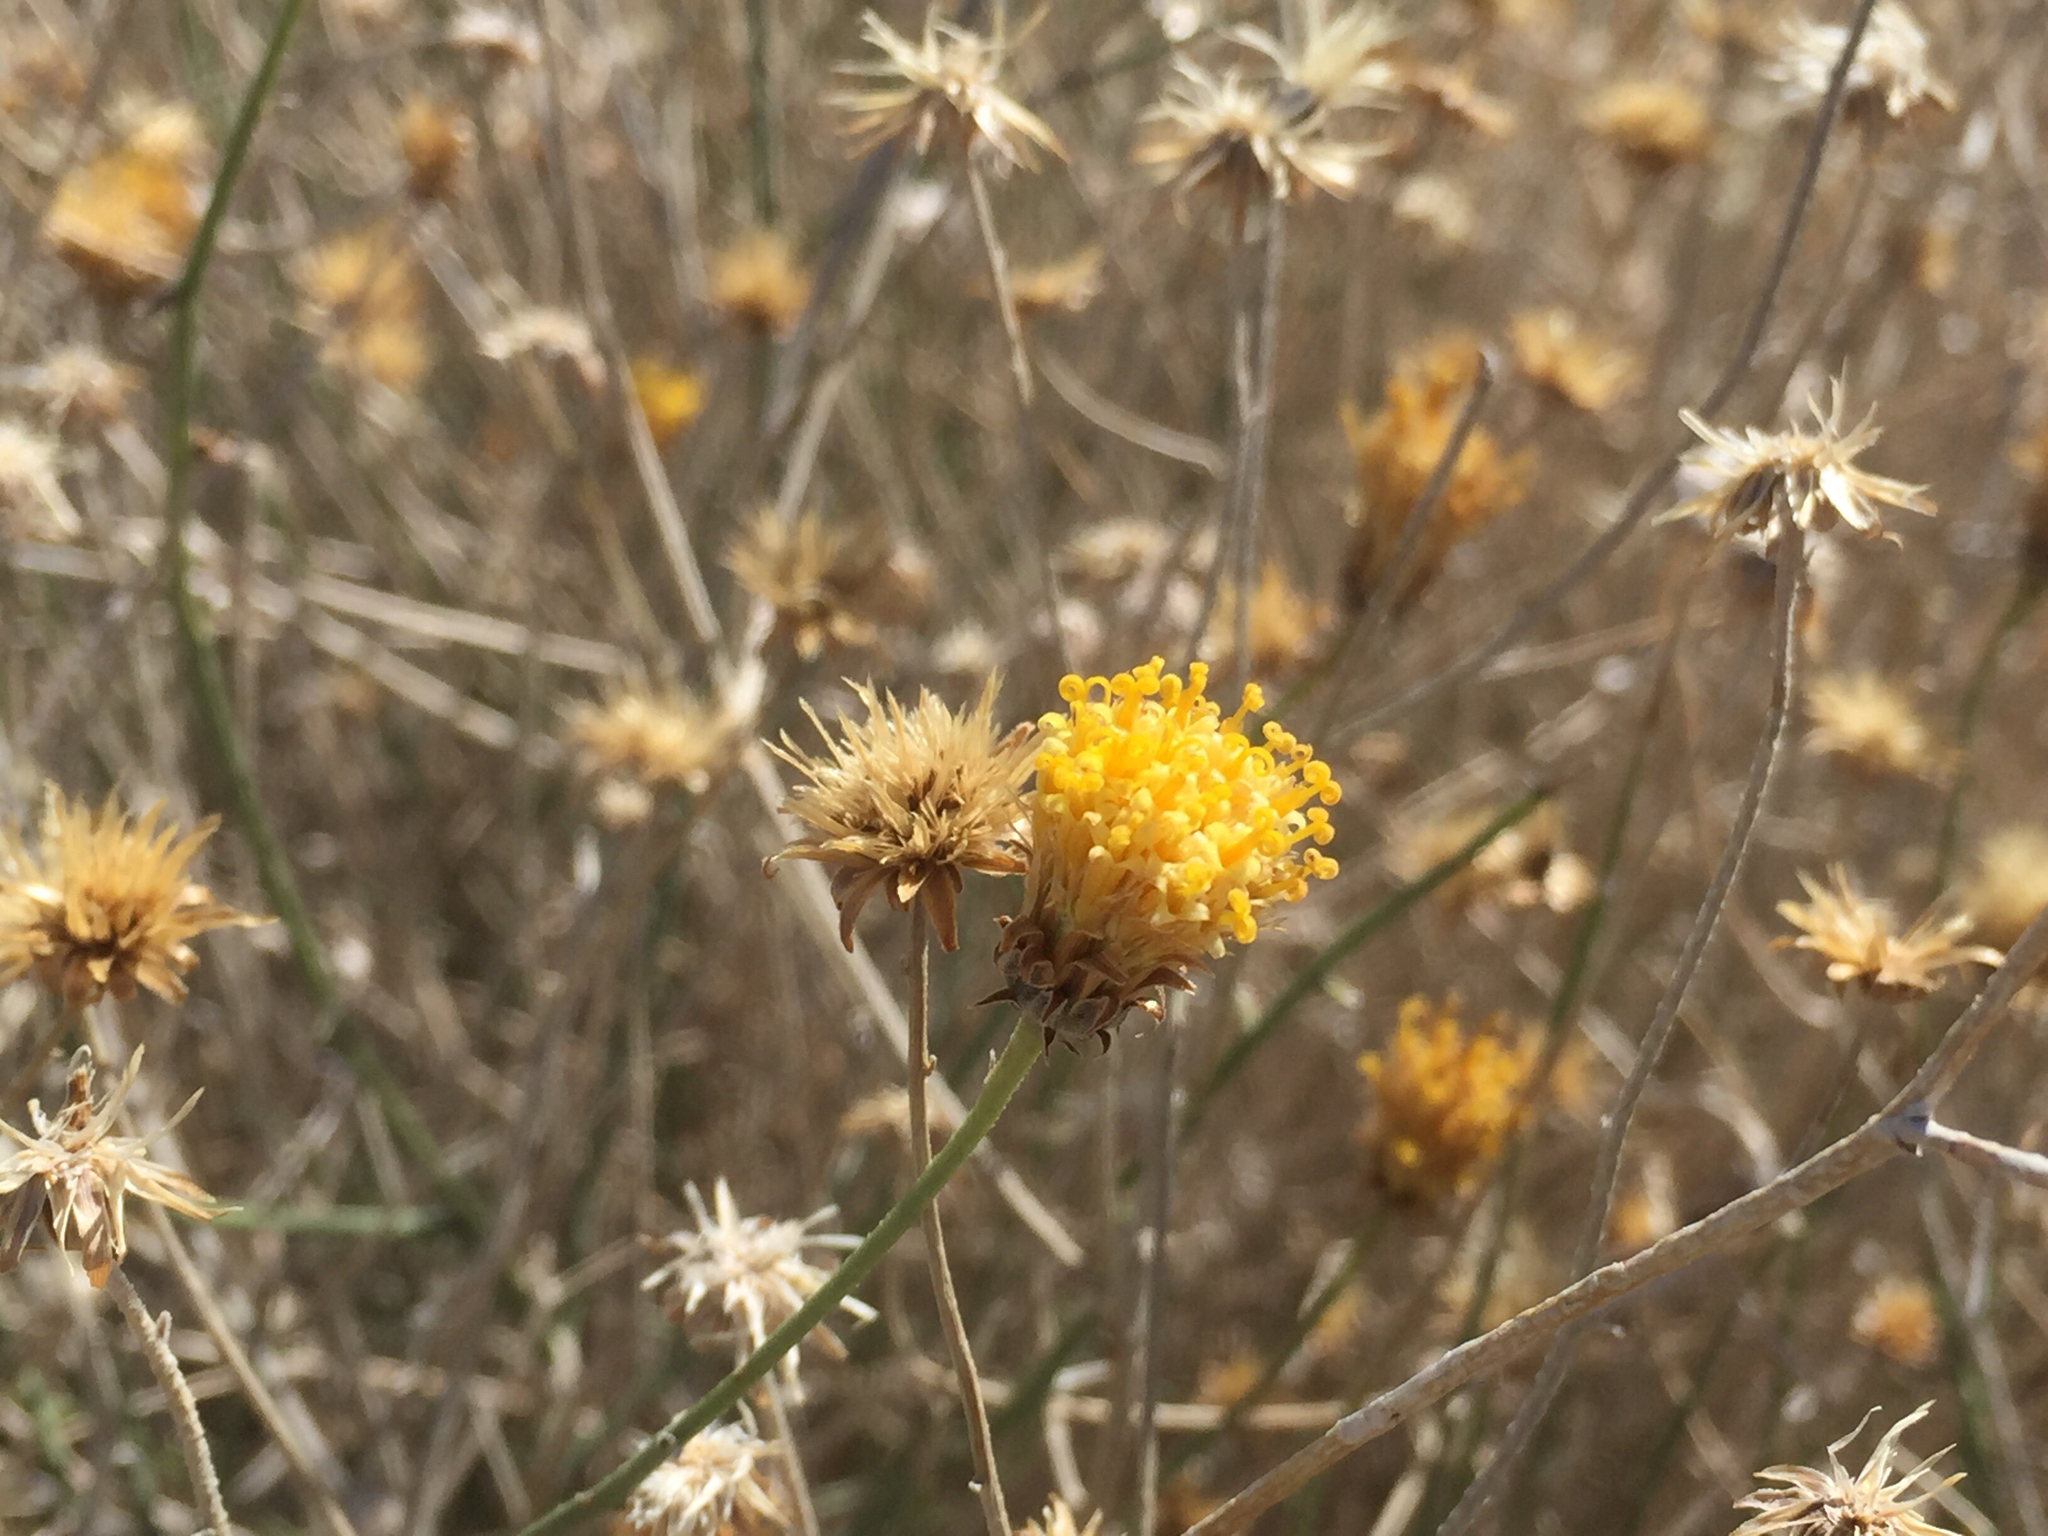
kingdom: Plantae
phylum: Tracheophyta
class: Magnoliopsida
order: Asterales
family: Asteraceae
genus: Bebbia
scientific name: Bebbia juncea
